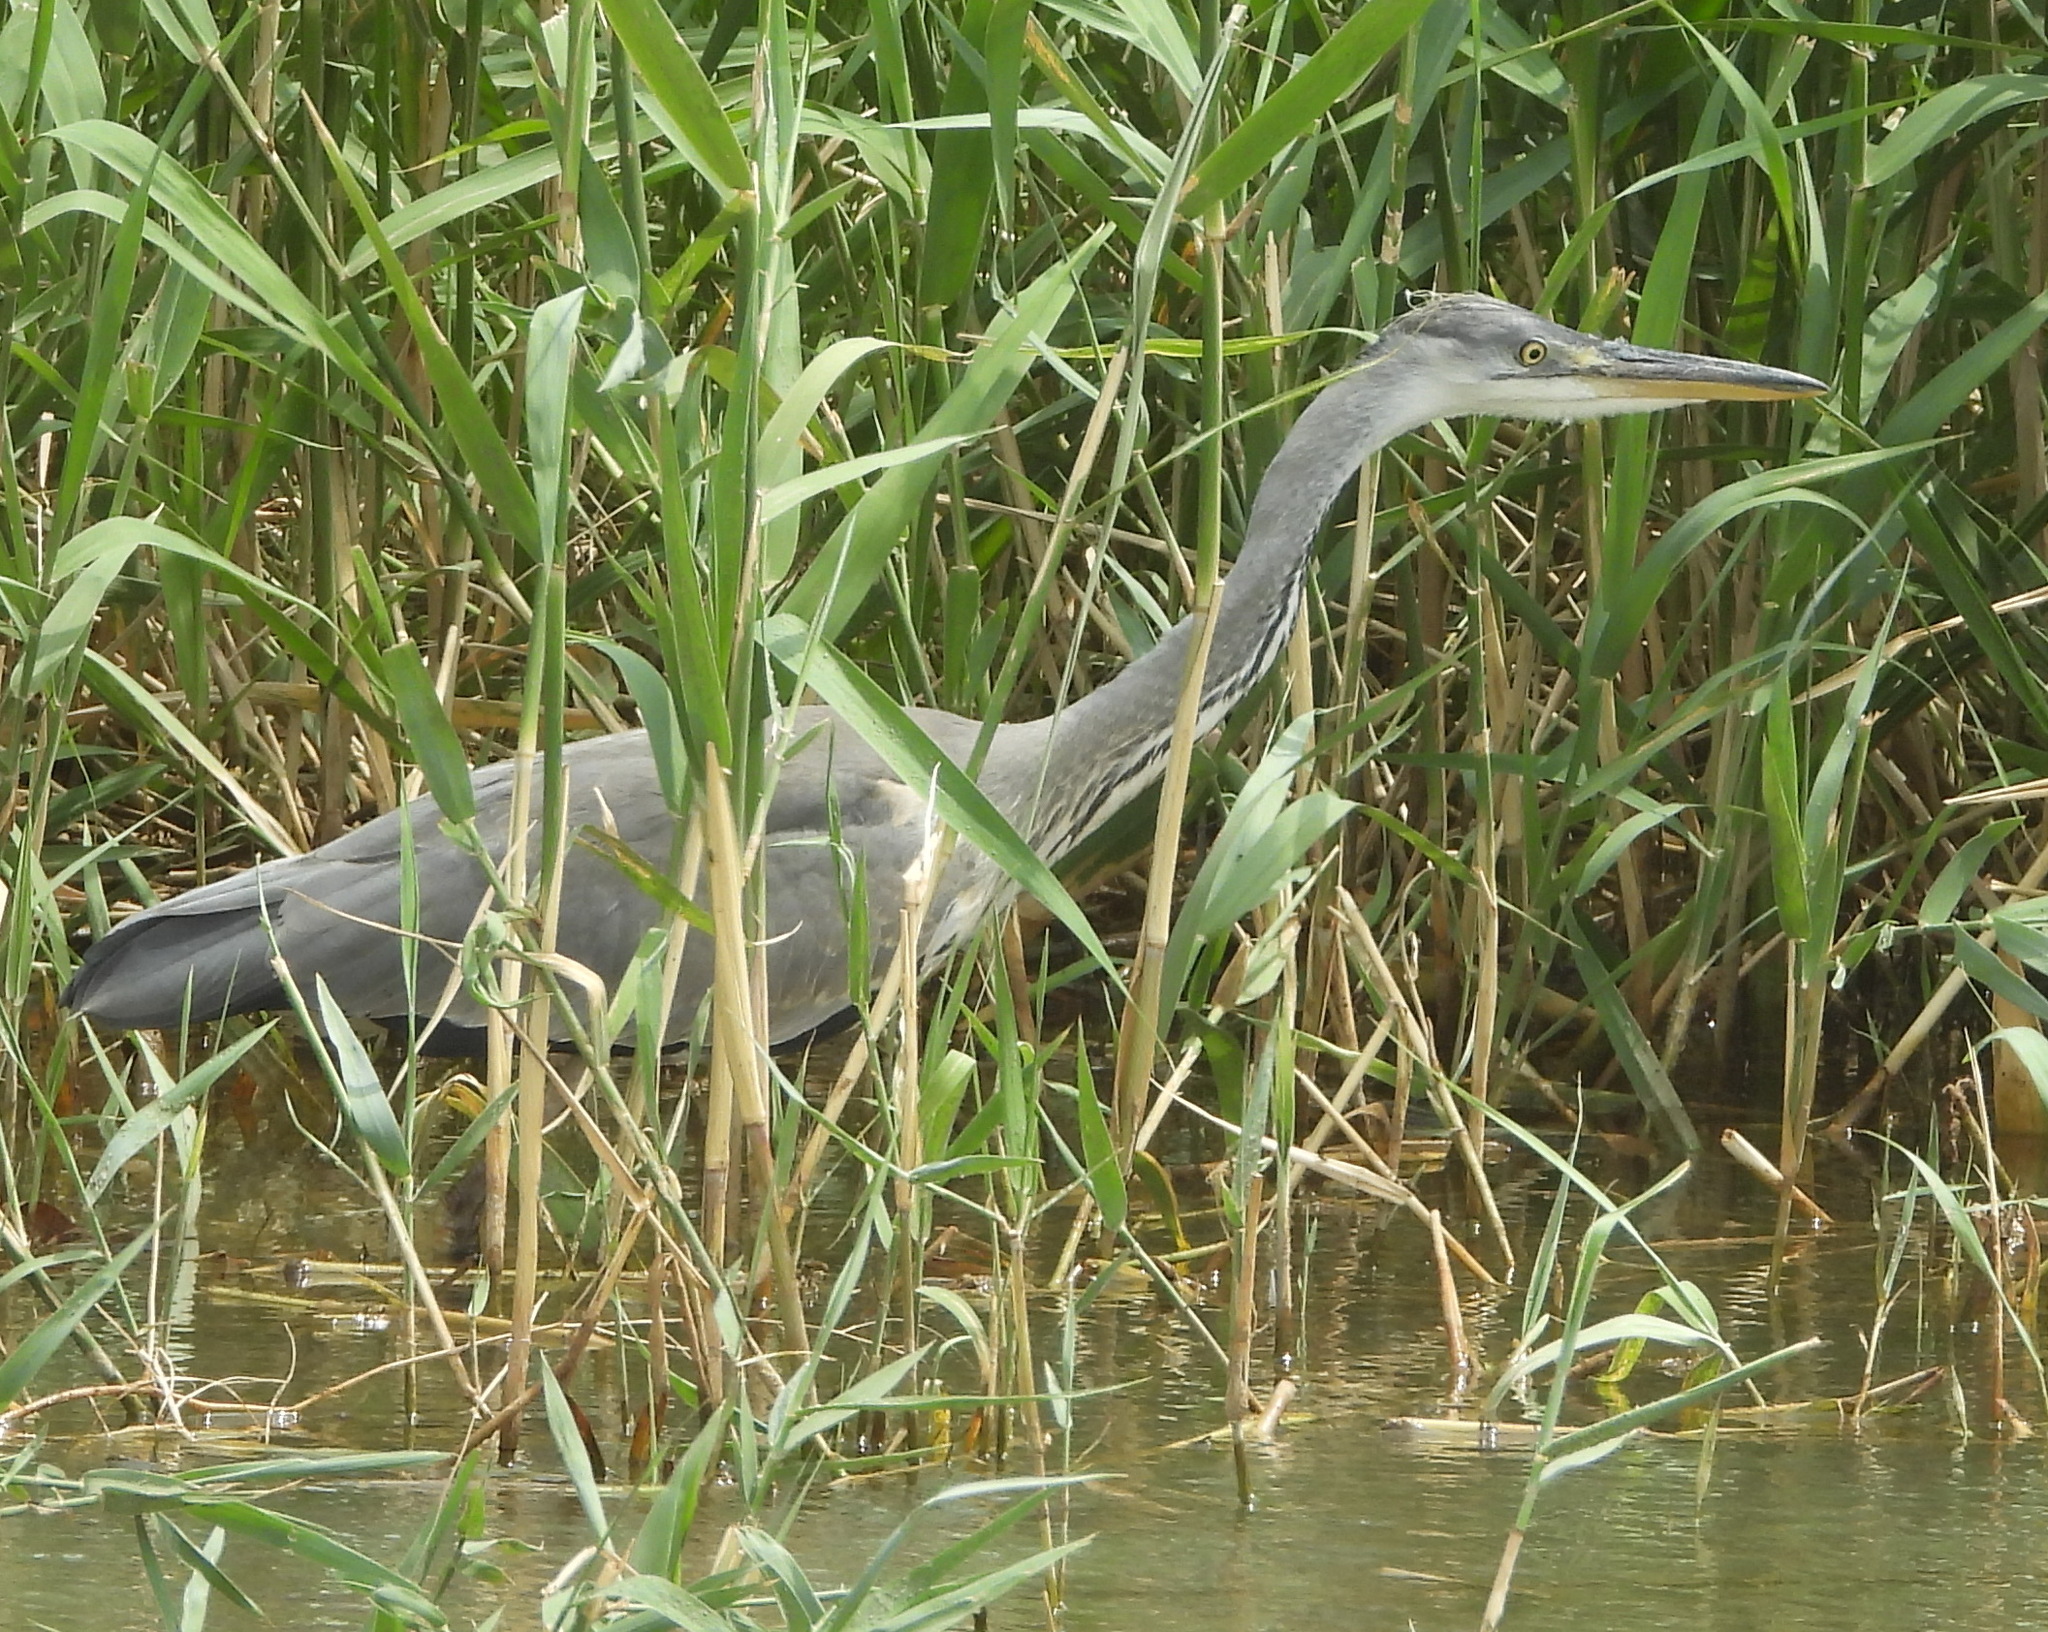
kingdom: Animalia
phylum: Chordata
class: Aves
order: Pelecaniformes
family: Ardeidae
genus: Ardea
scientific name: Ardea cinerea
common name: Grey heron
